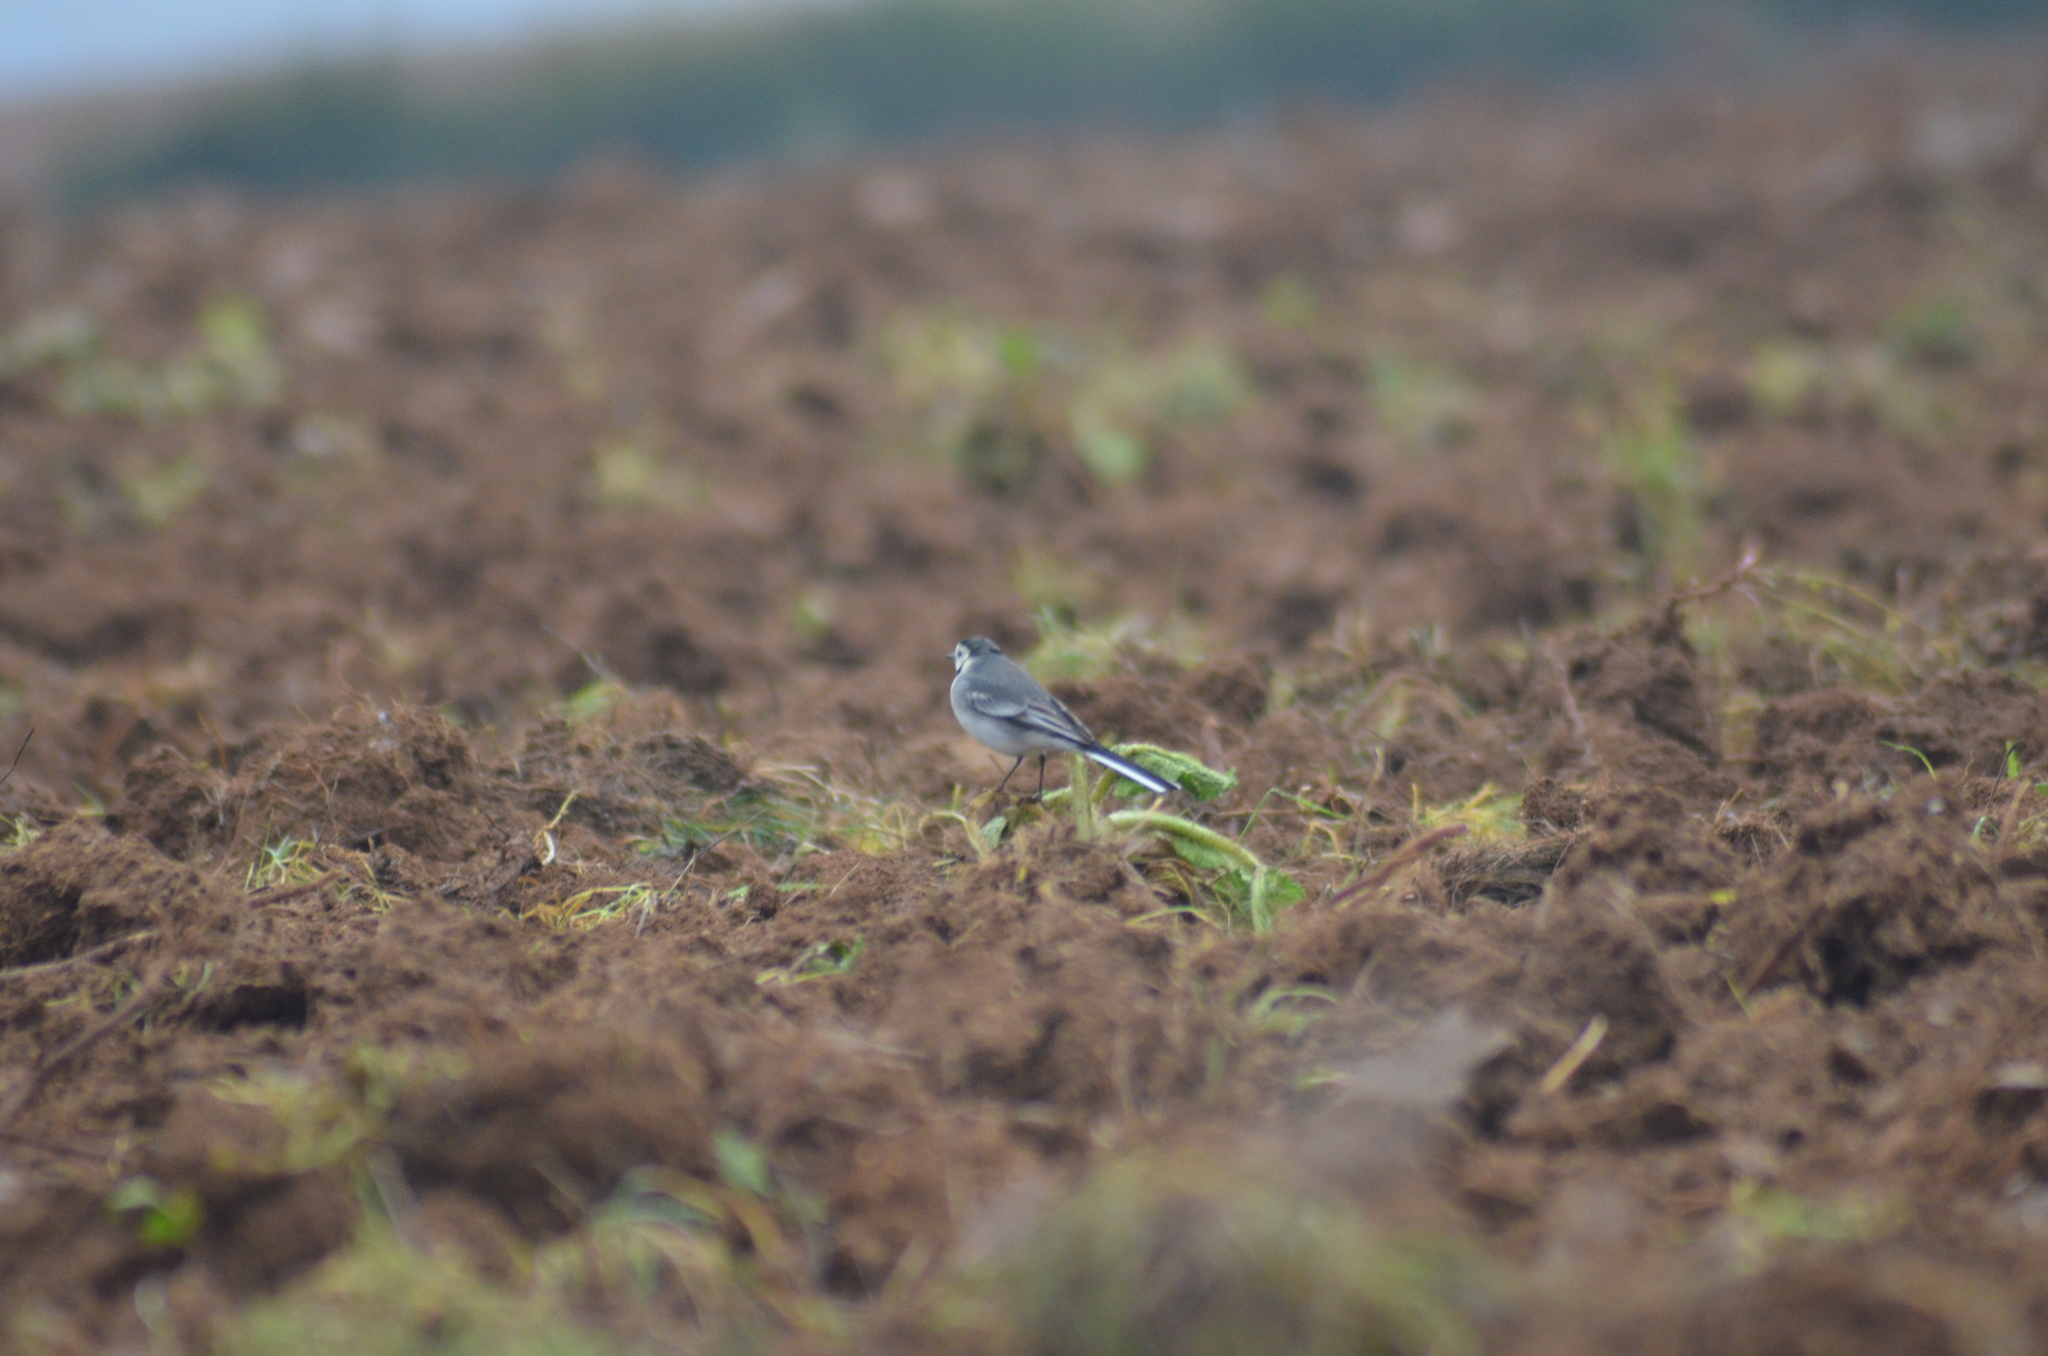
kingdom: Animalia
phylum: Chordata
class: Aves
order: Passeriformes
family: Motacillidae
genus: Motacilla
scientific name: Motacilla alba
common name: White wagtail
